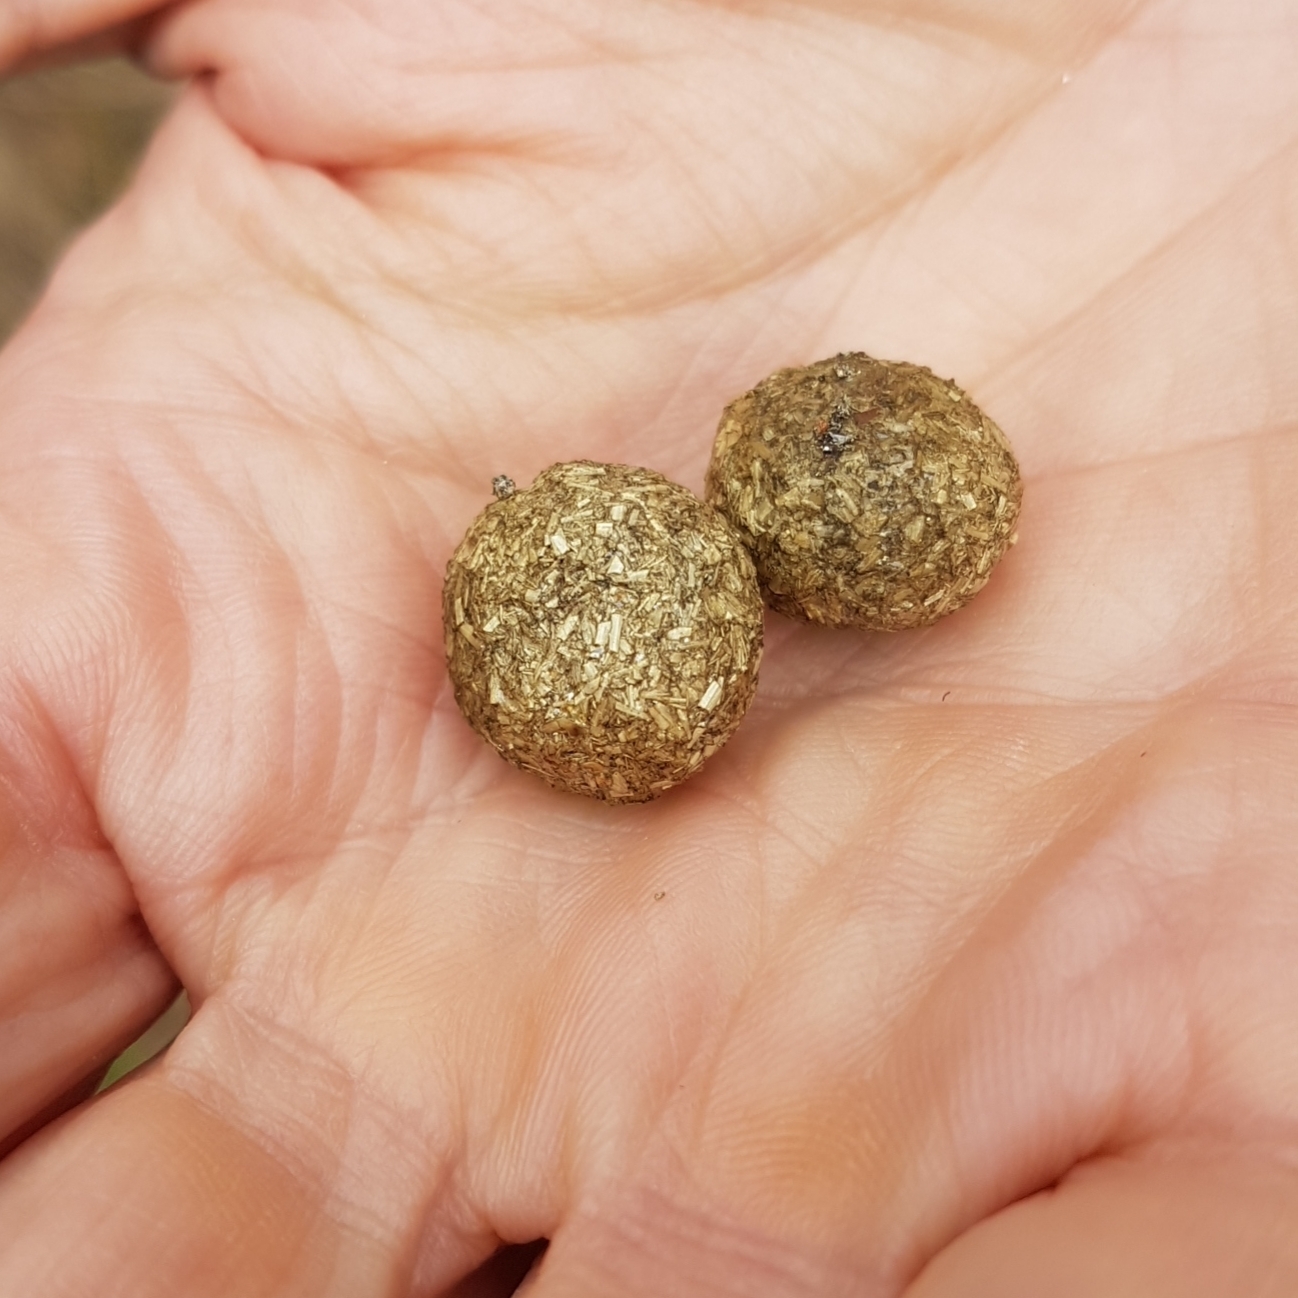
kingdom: Animalia
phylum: Chordata
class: Mammalia
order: Lagomorpha
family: Leporidae
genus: Lepus
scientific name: Lepus europaeus
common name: European hare
